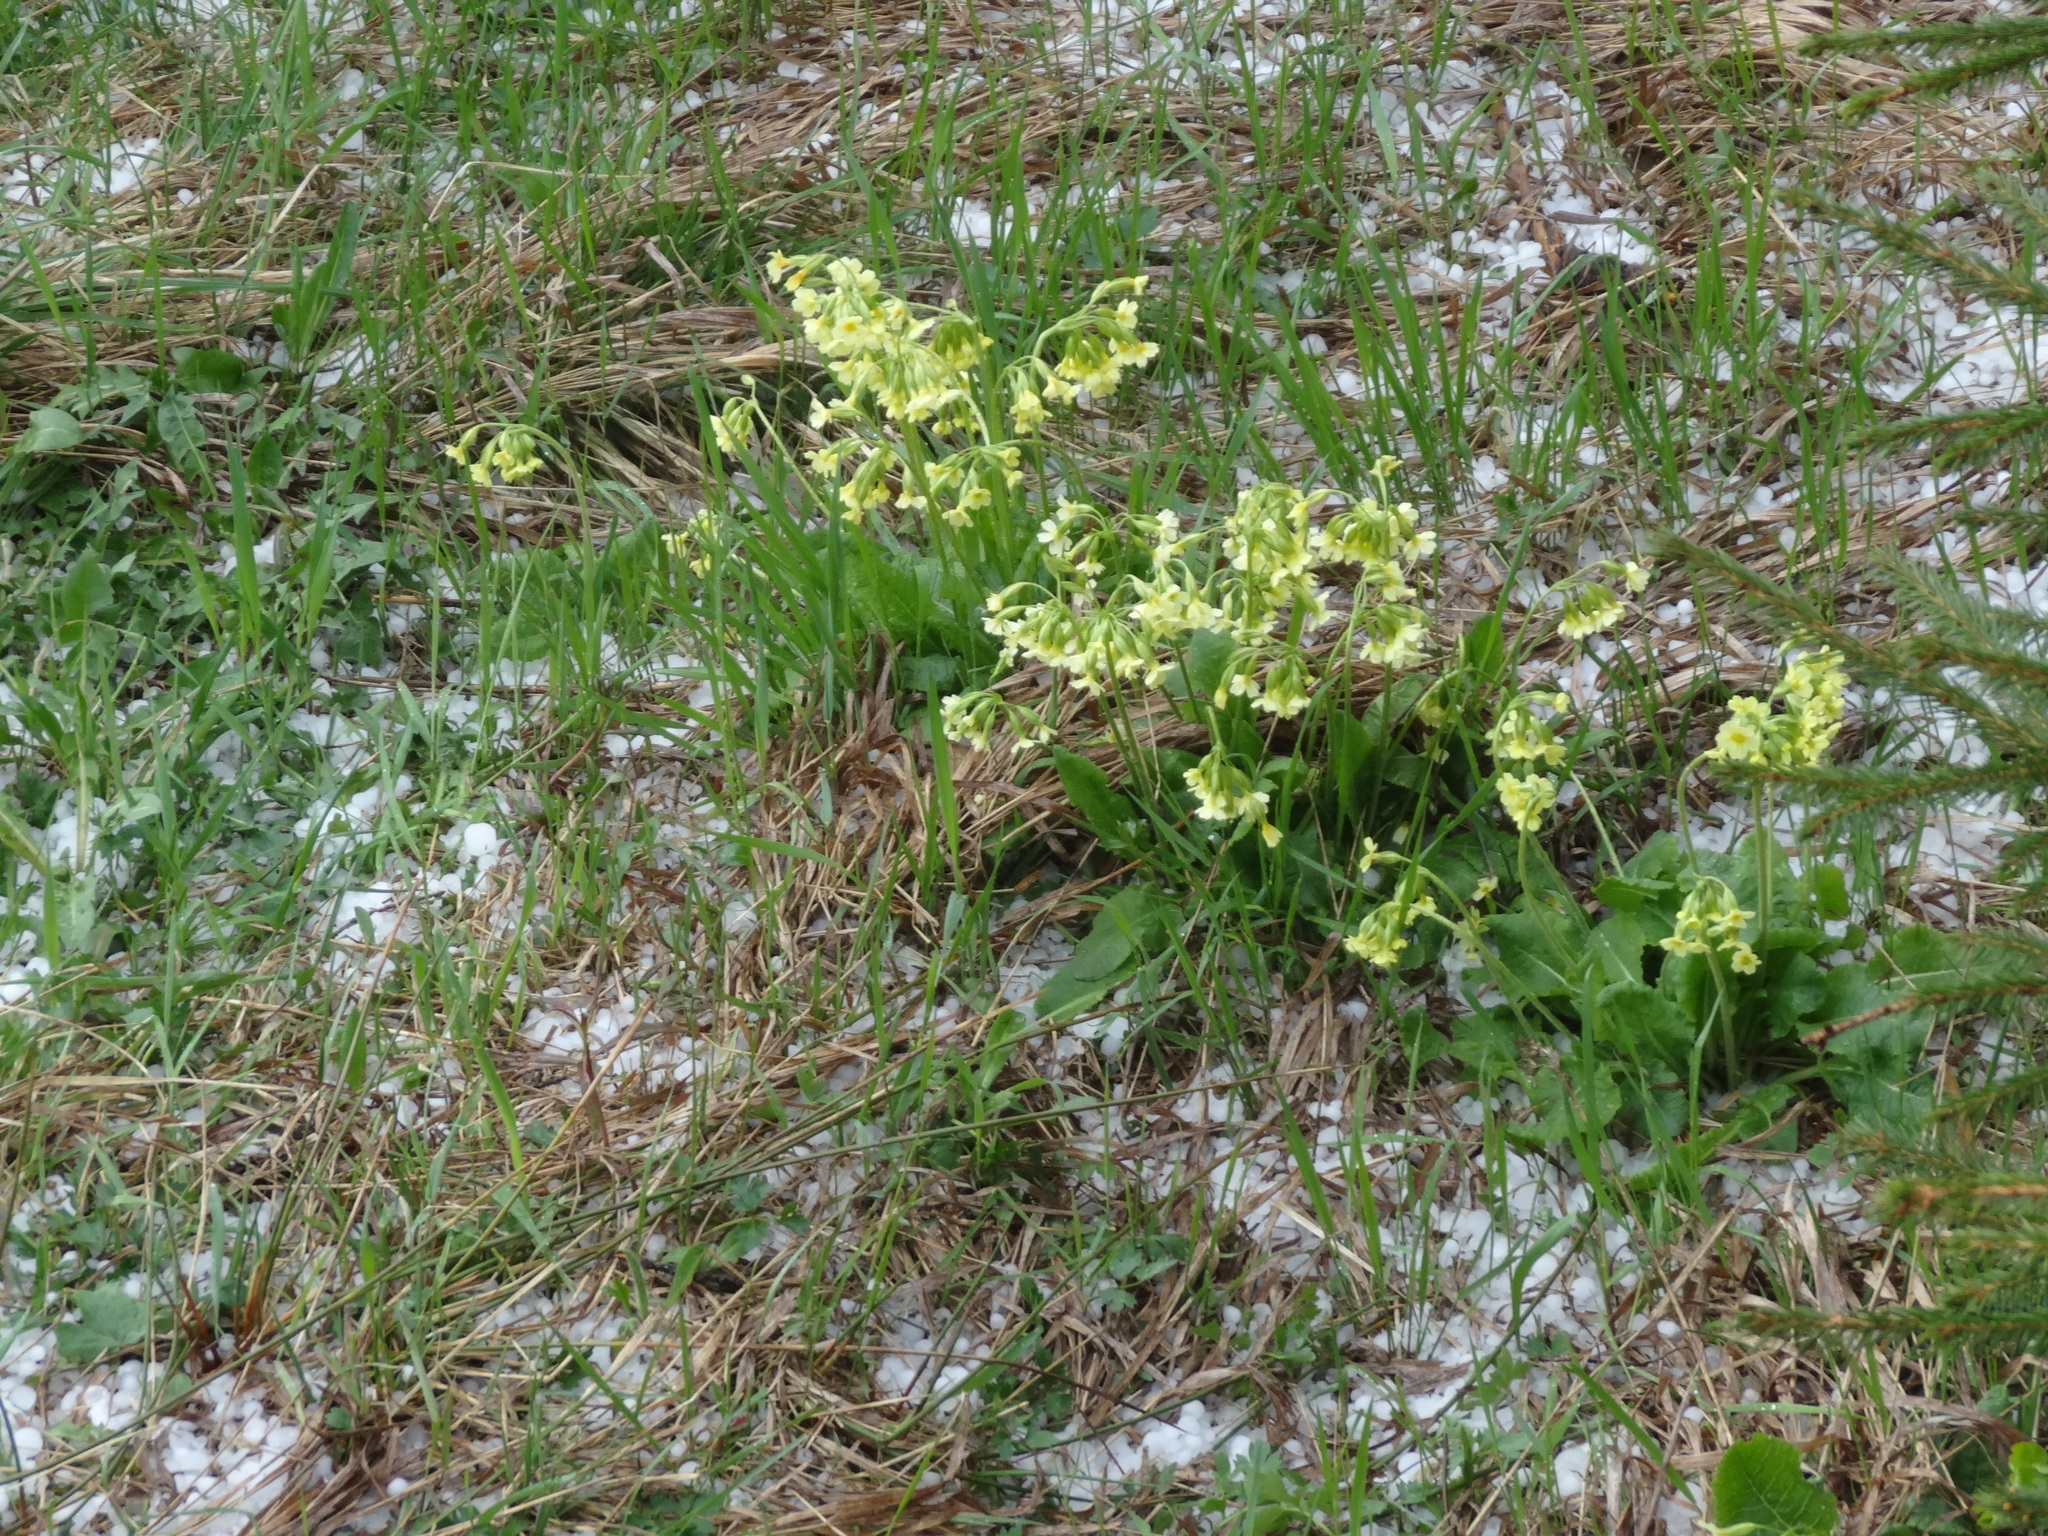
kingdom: Plantae
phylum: Tracheophyta
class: Magnoliopsida
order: Ericales
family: Primulaceae
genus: Primula
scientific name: Primula elatior
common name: Oxlip
